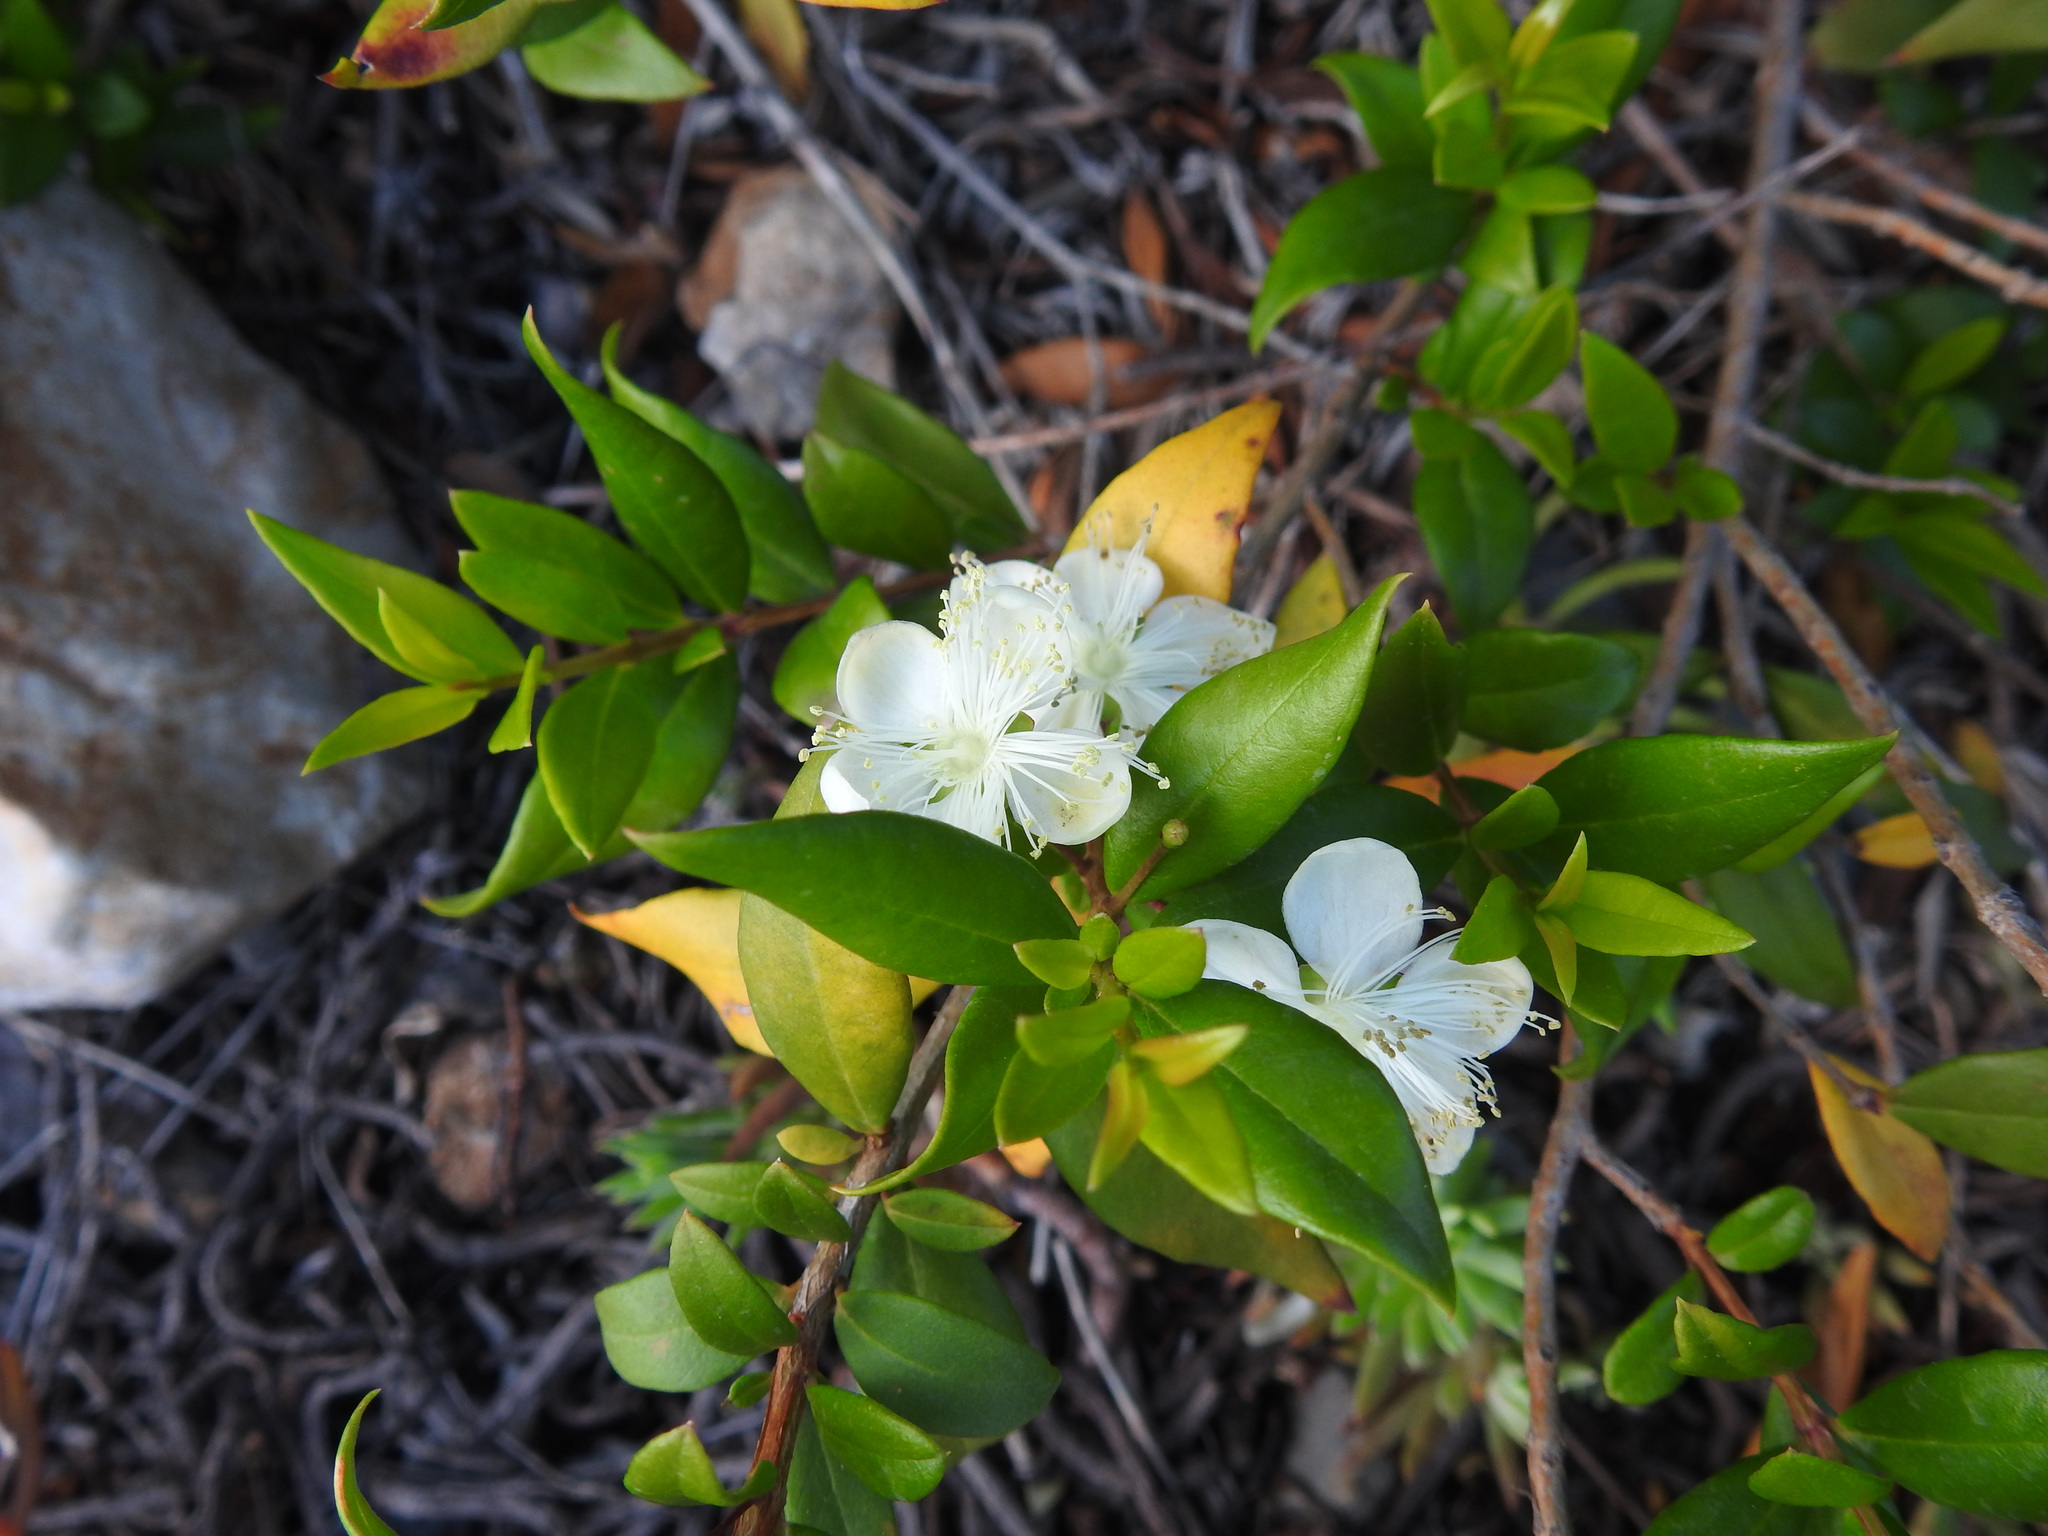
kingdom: Plantae
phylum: Tracheophyta
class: Magnoliopsida
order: Myrtales
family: Myrtaceae
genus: Myrtus
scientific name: Myrtus communis
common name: Myrtle
